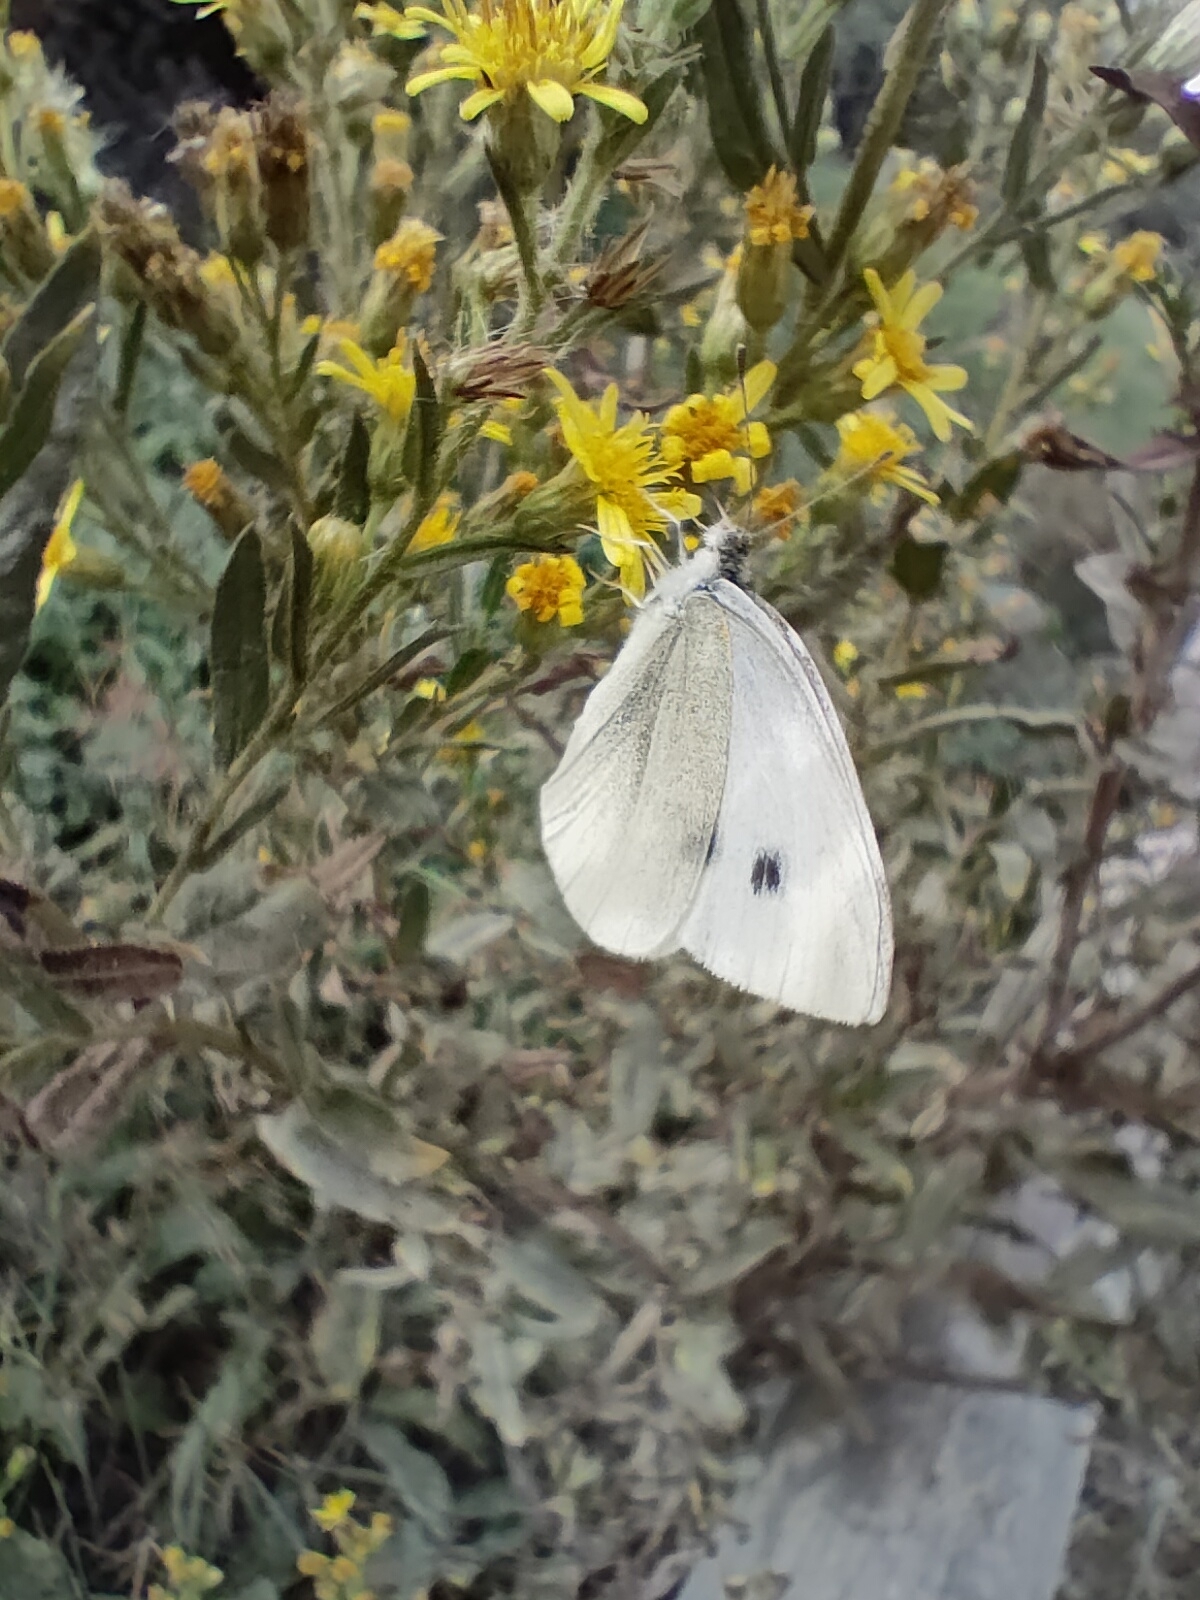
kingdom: Animalia
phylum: Arthropoda
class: Insecta
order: Lepidoptera
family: Pieridae
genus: Pieris
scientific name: Pieris rapae
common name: Small white
